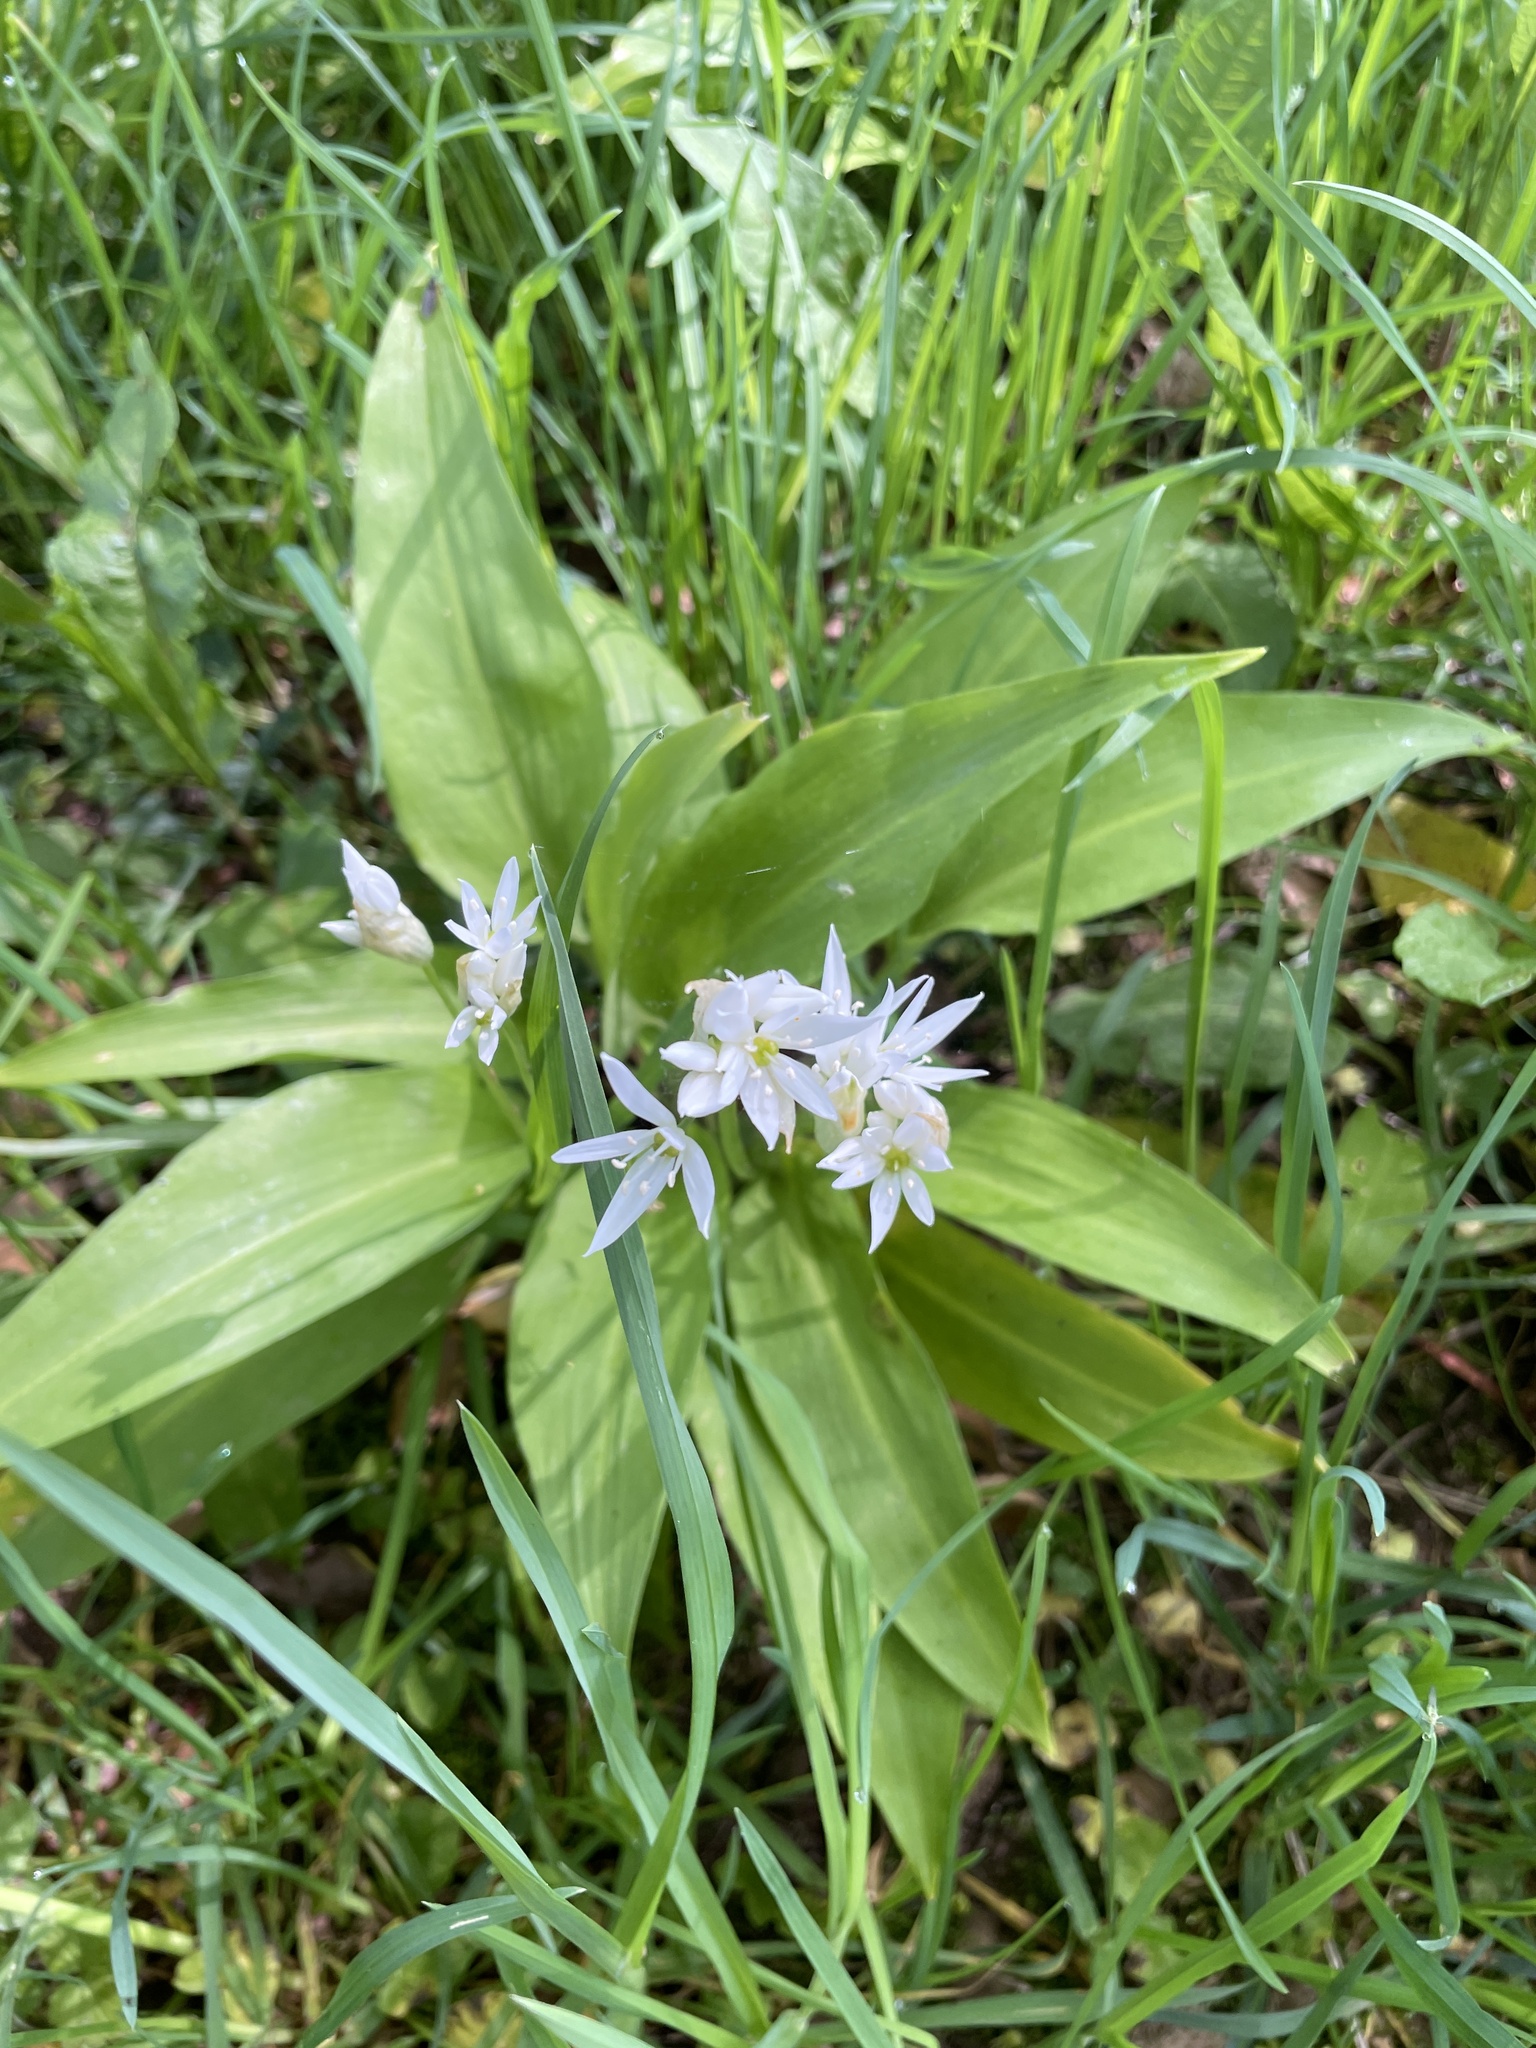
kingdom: Plantae
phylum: Tracheophyta
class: Liliopsida
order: Asparagales
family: Amaryllidaceae
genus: Allium
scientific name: Allium ursinum
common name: Ramsons
